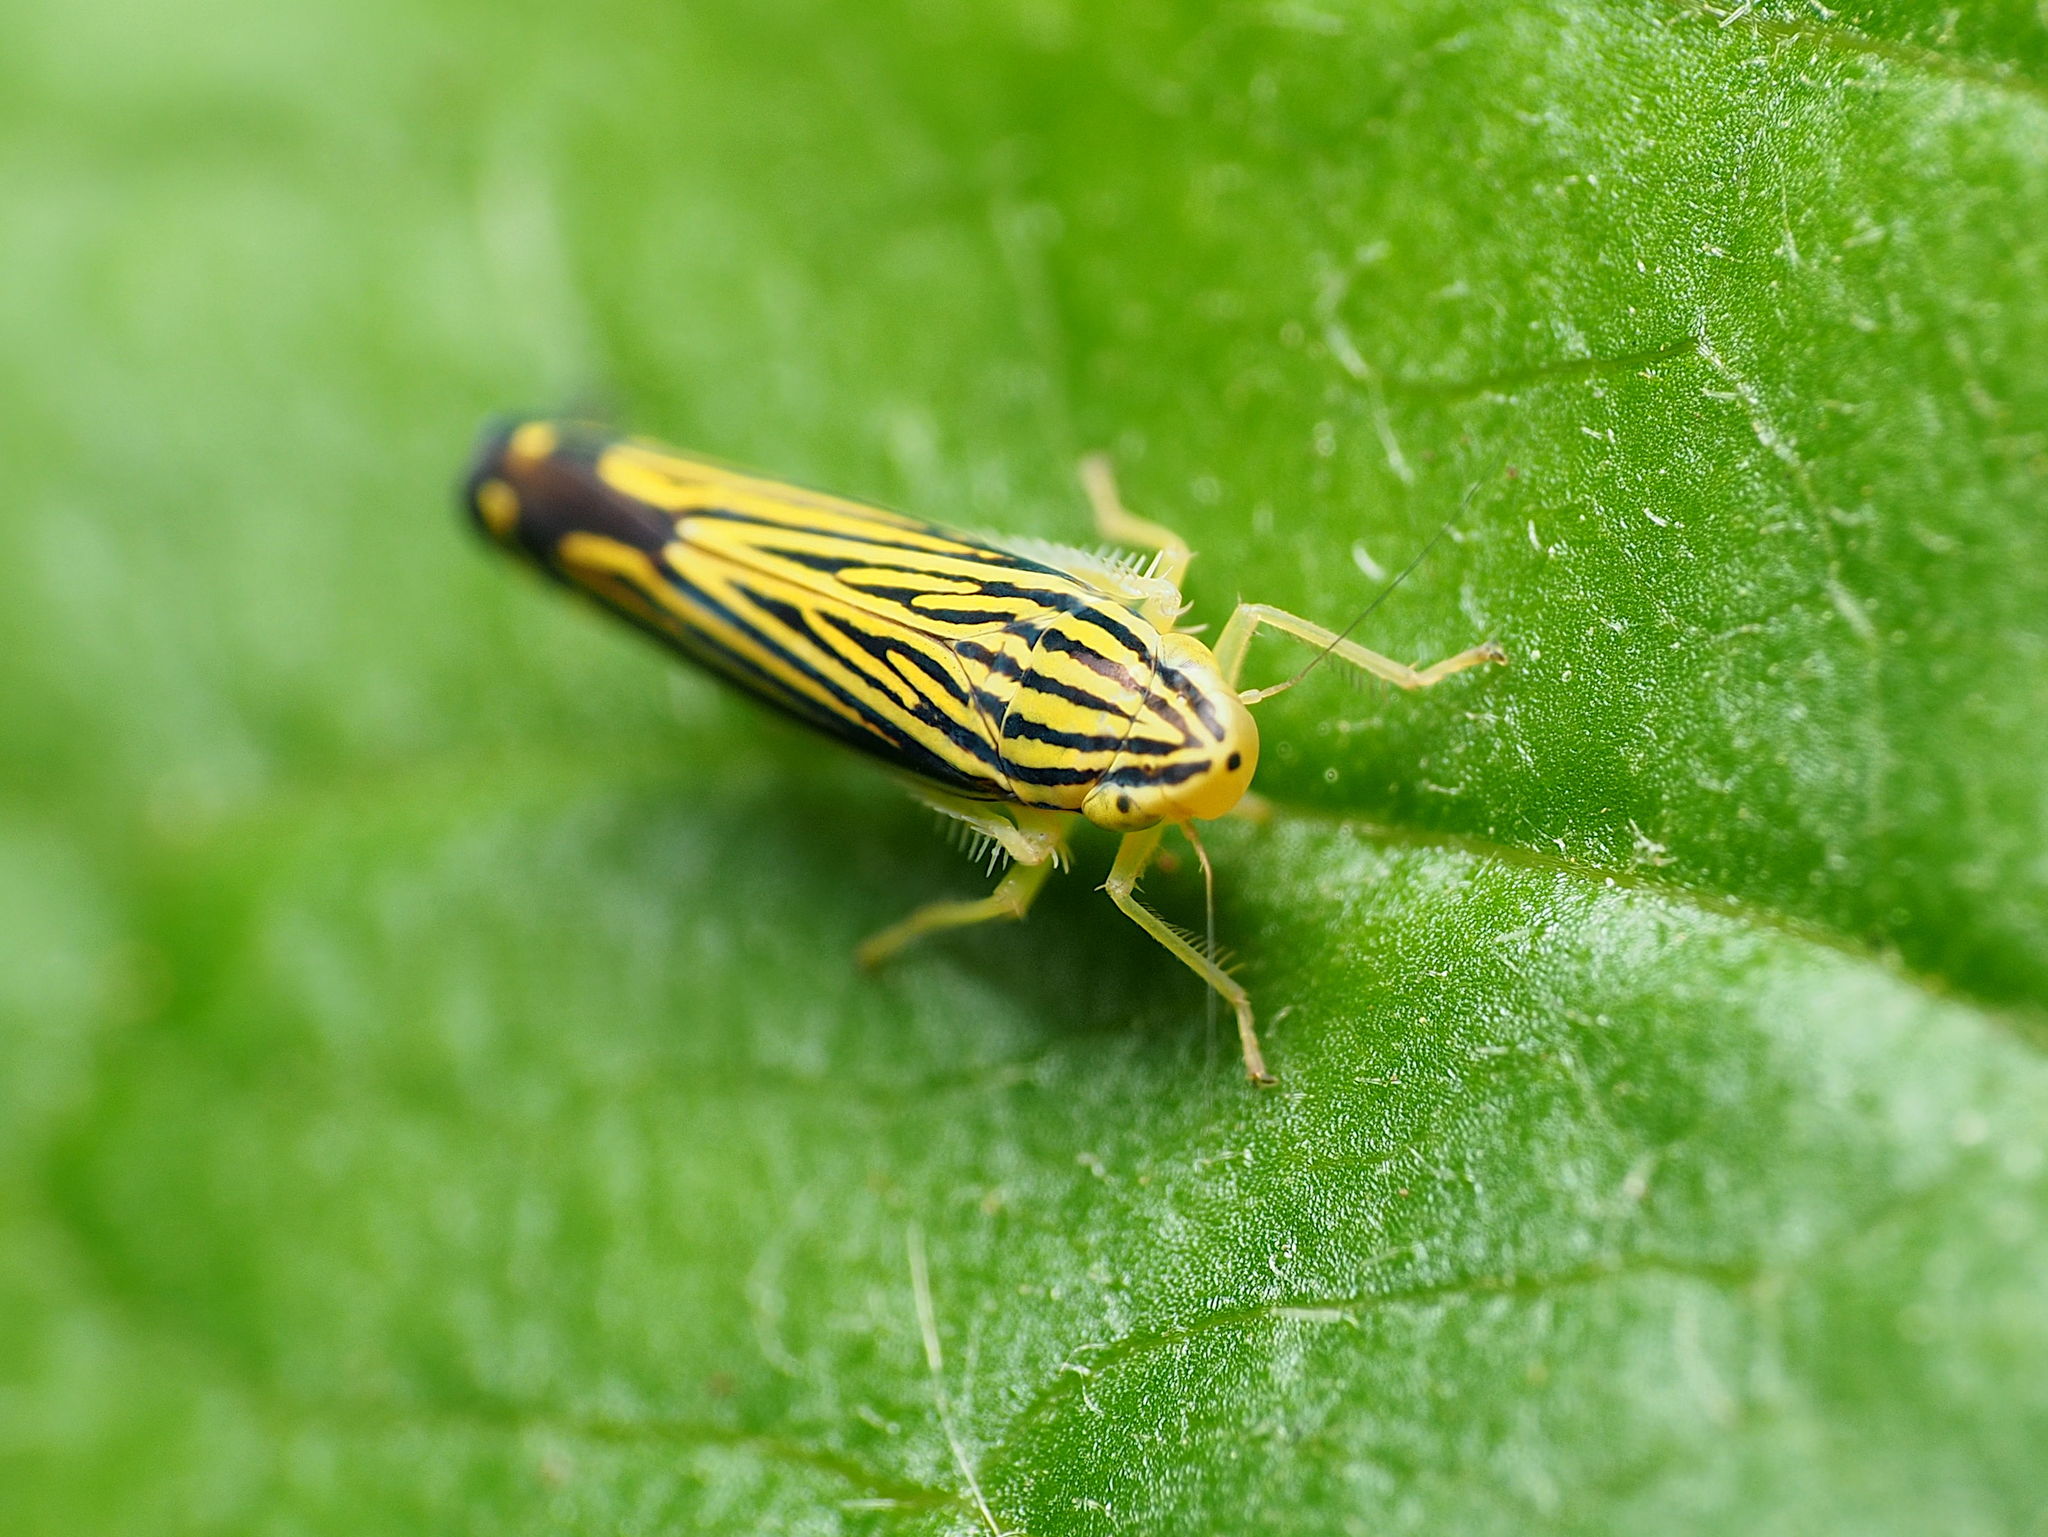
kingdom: Animalia
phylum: Arthropoda
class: Insecta
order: Hemiptera
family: Cicadellidae
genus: Sibovia
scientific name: Sibovia occatoria
